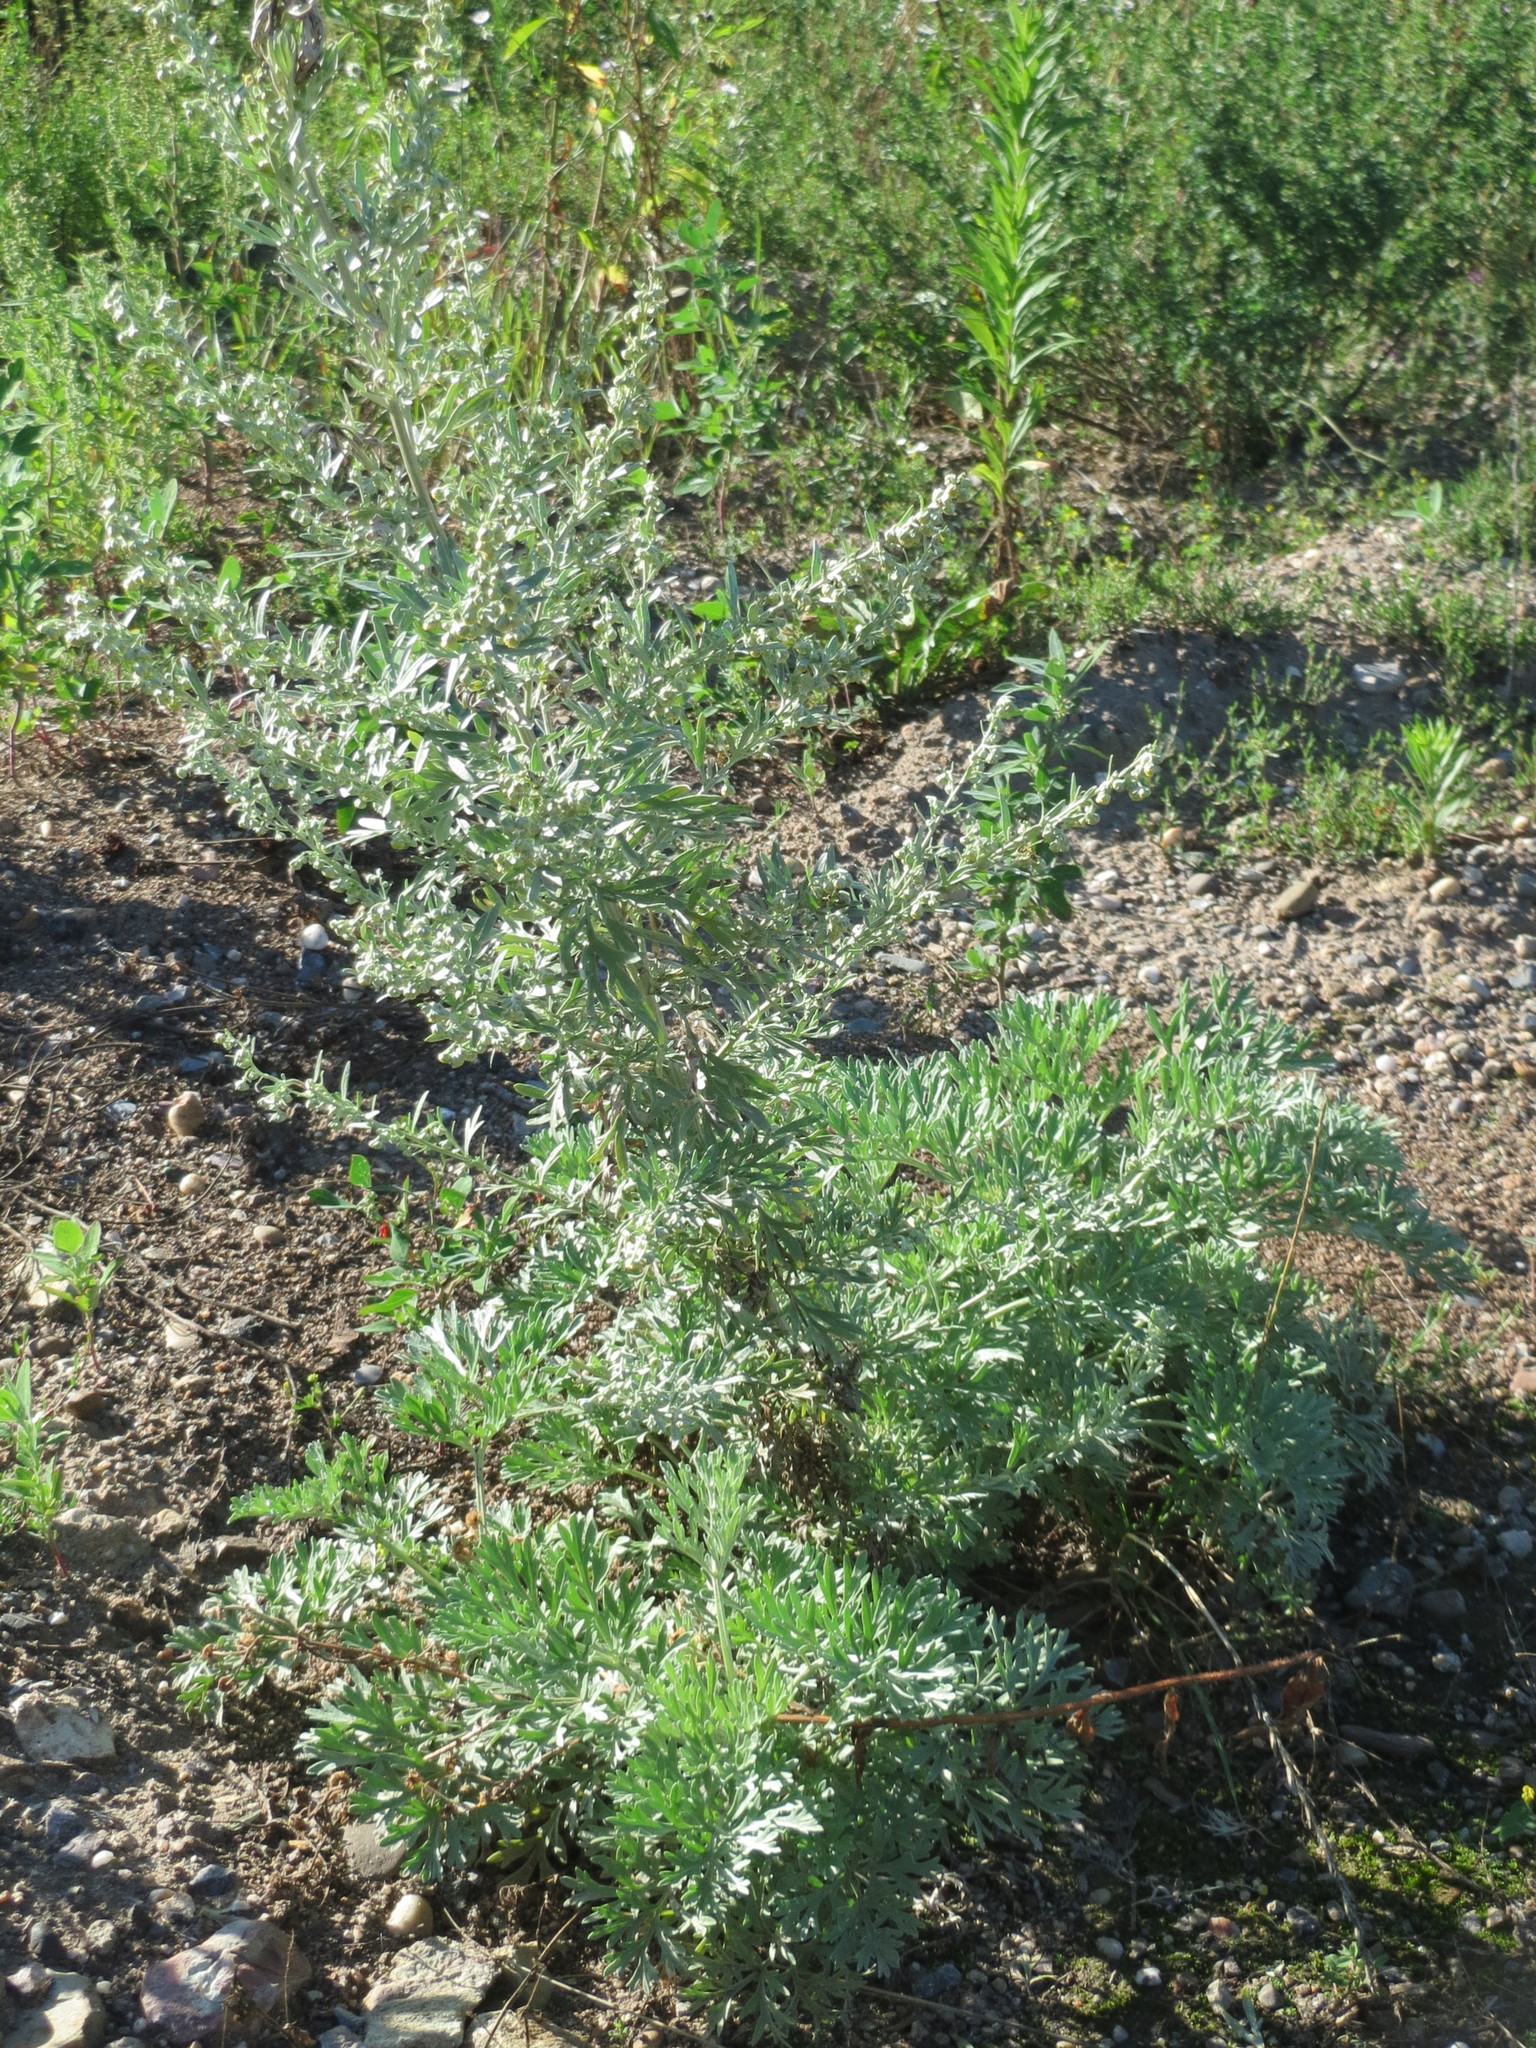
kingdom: Plantae
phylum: Tracheophyta
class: Magnoliopsida
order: Asterales
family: Asteraceae
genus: Artemisia
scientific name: Artemisia absinthium
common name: Wormwood
